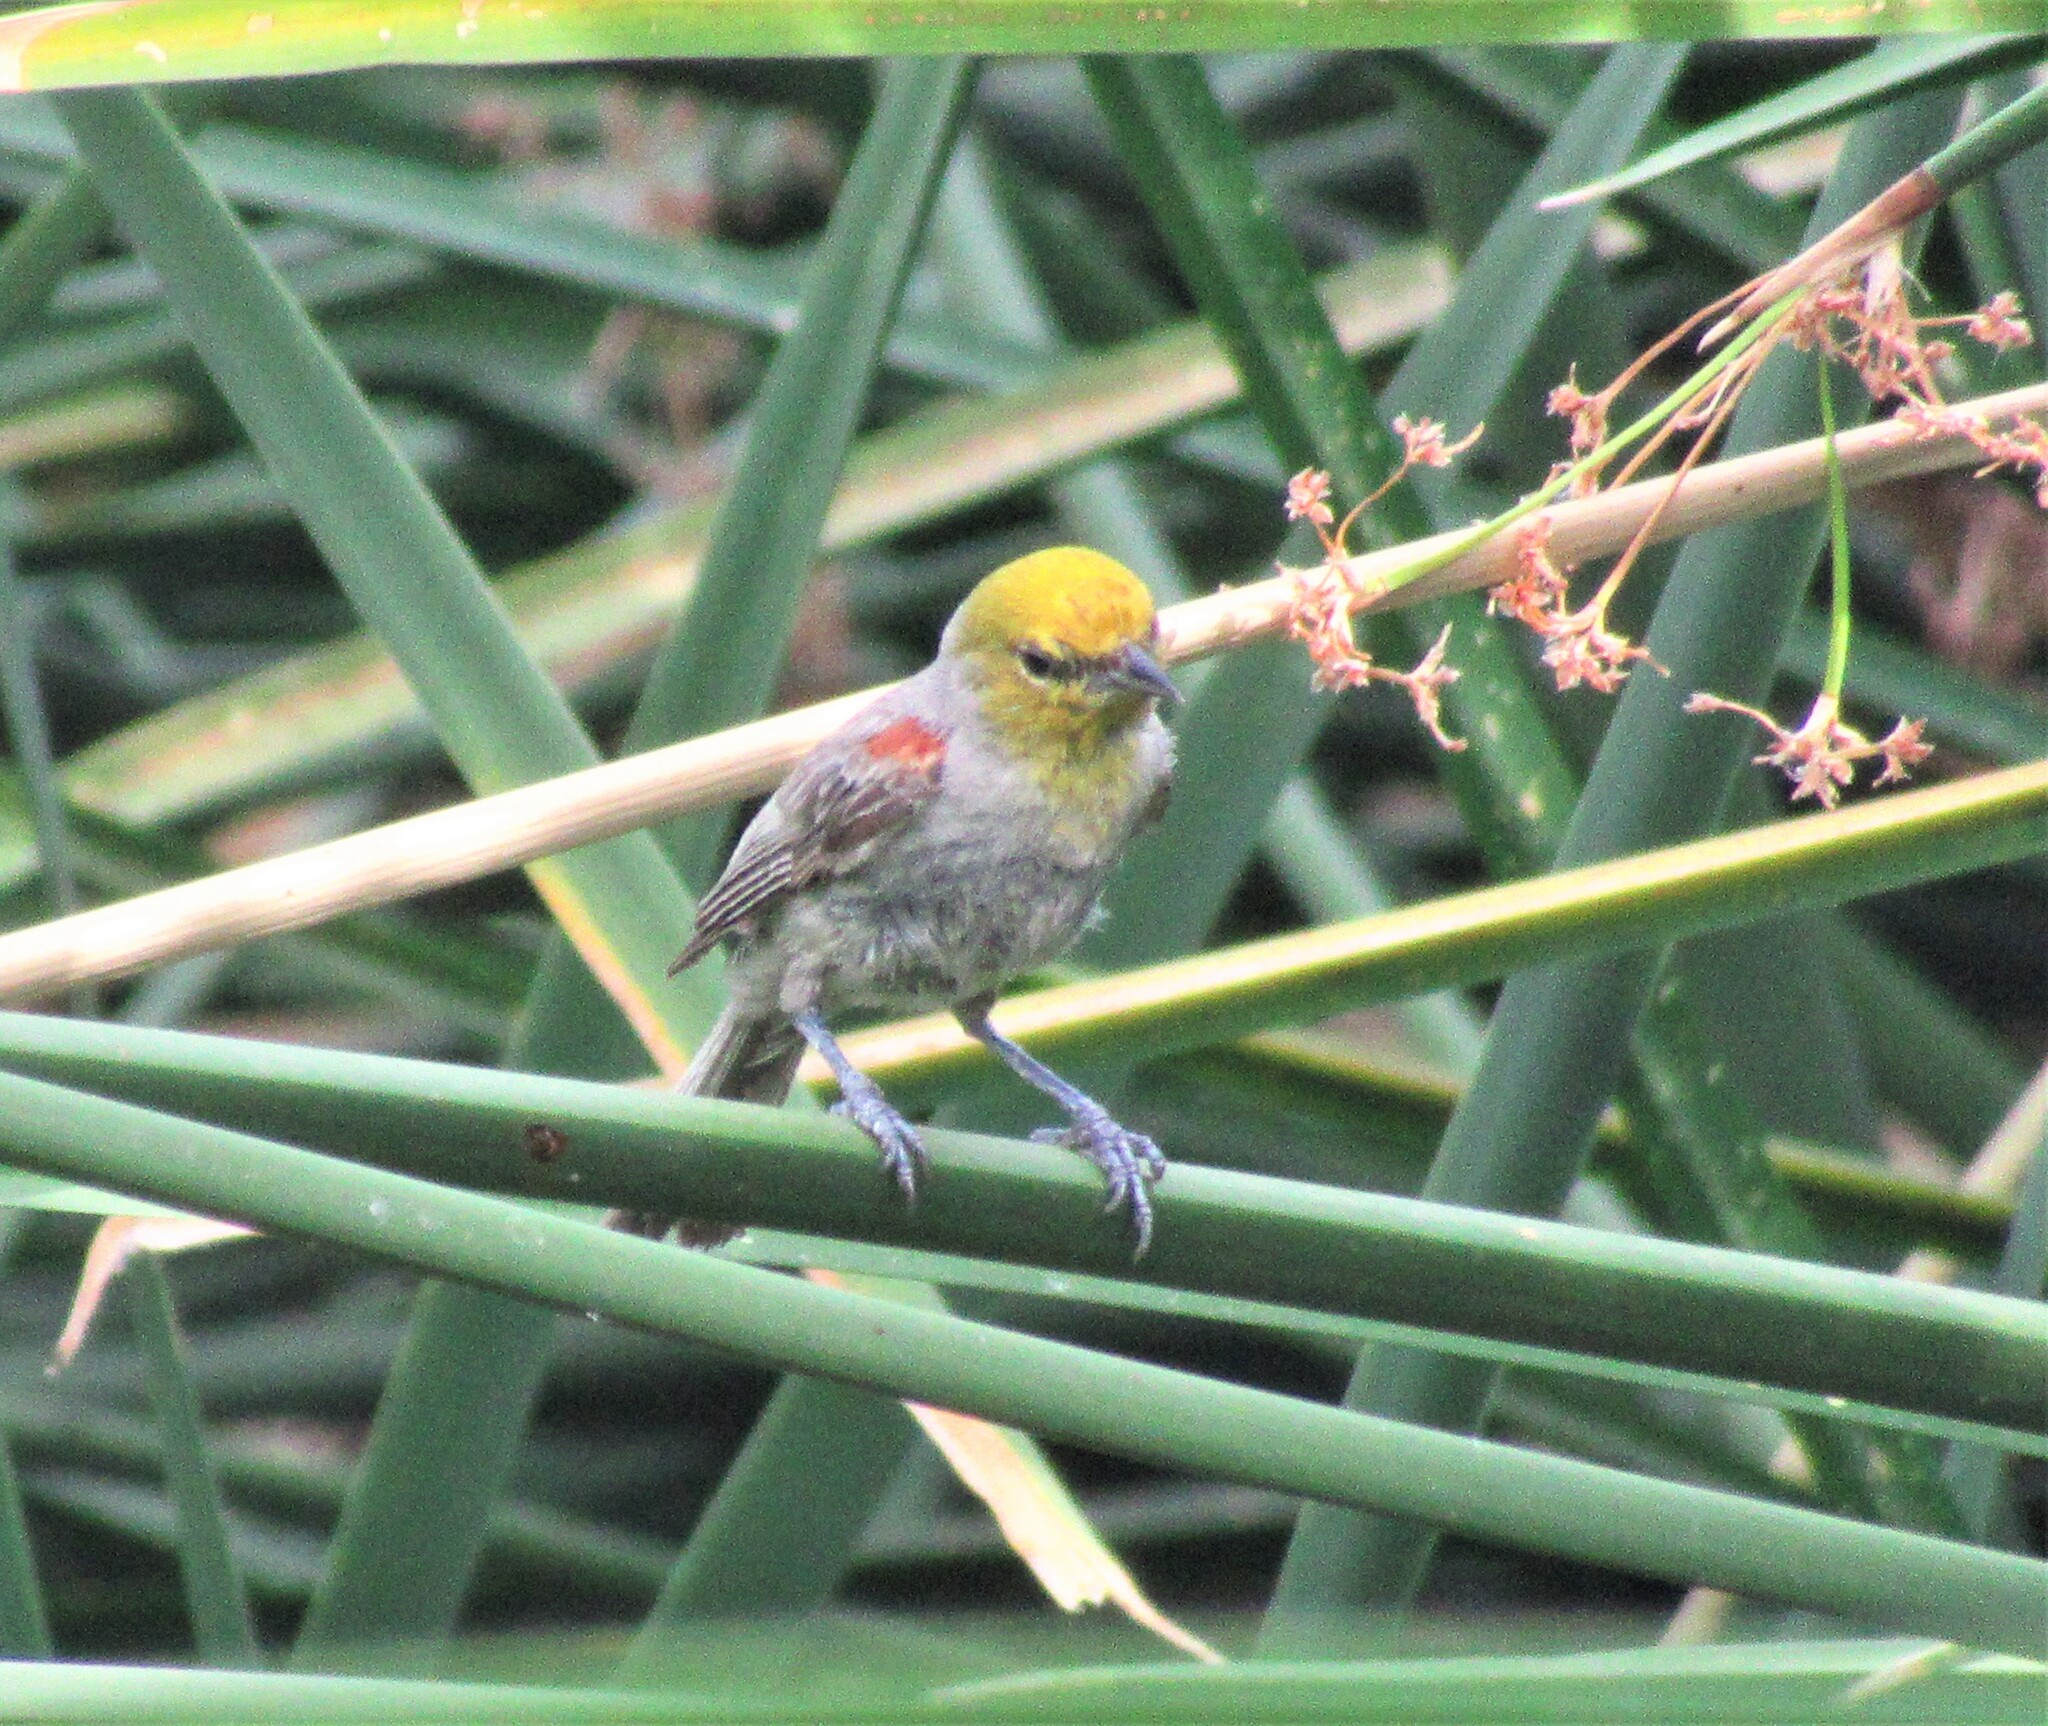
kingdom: Animalia
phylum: Chordata
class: Aves
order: Passeriformes
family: Remizidae
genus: Auriparus
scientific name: Auriparus flaviceps
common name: Verdin
